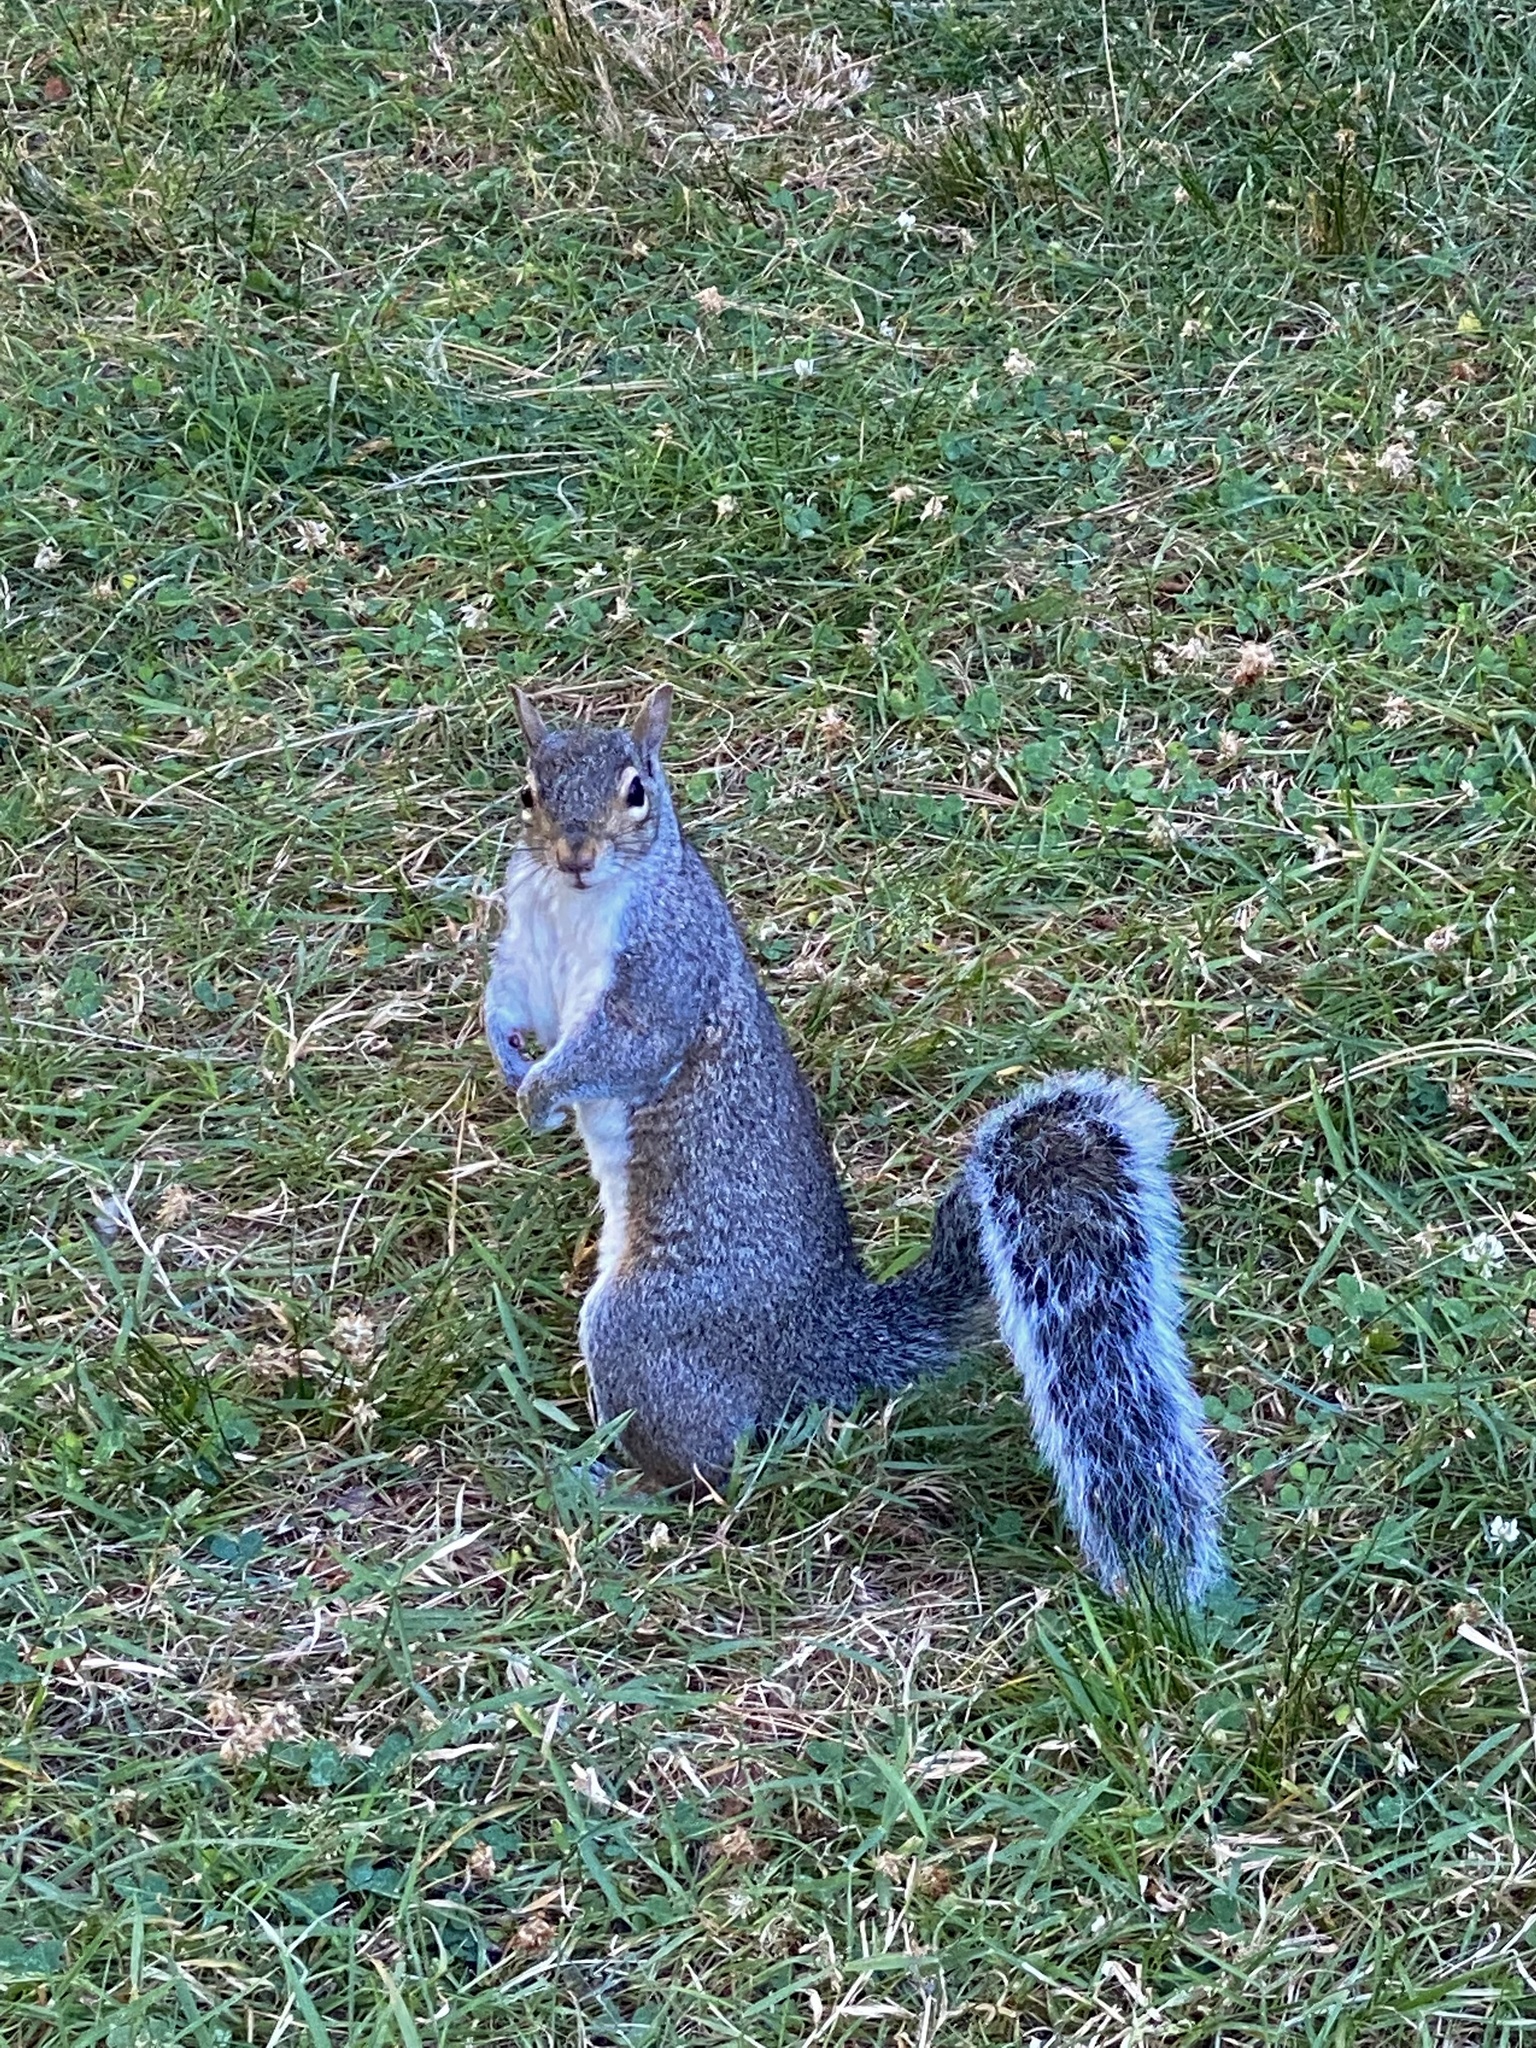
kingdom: Animalia
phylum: Chordata
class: Mammalia
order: Rodentia
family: Sciuridae
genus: Sciurus
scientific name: Sciurus carolinensis
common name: Eastern gray squirrel
